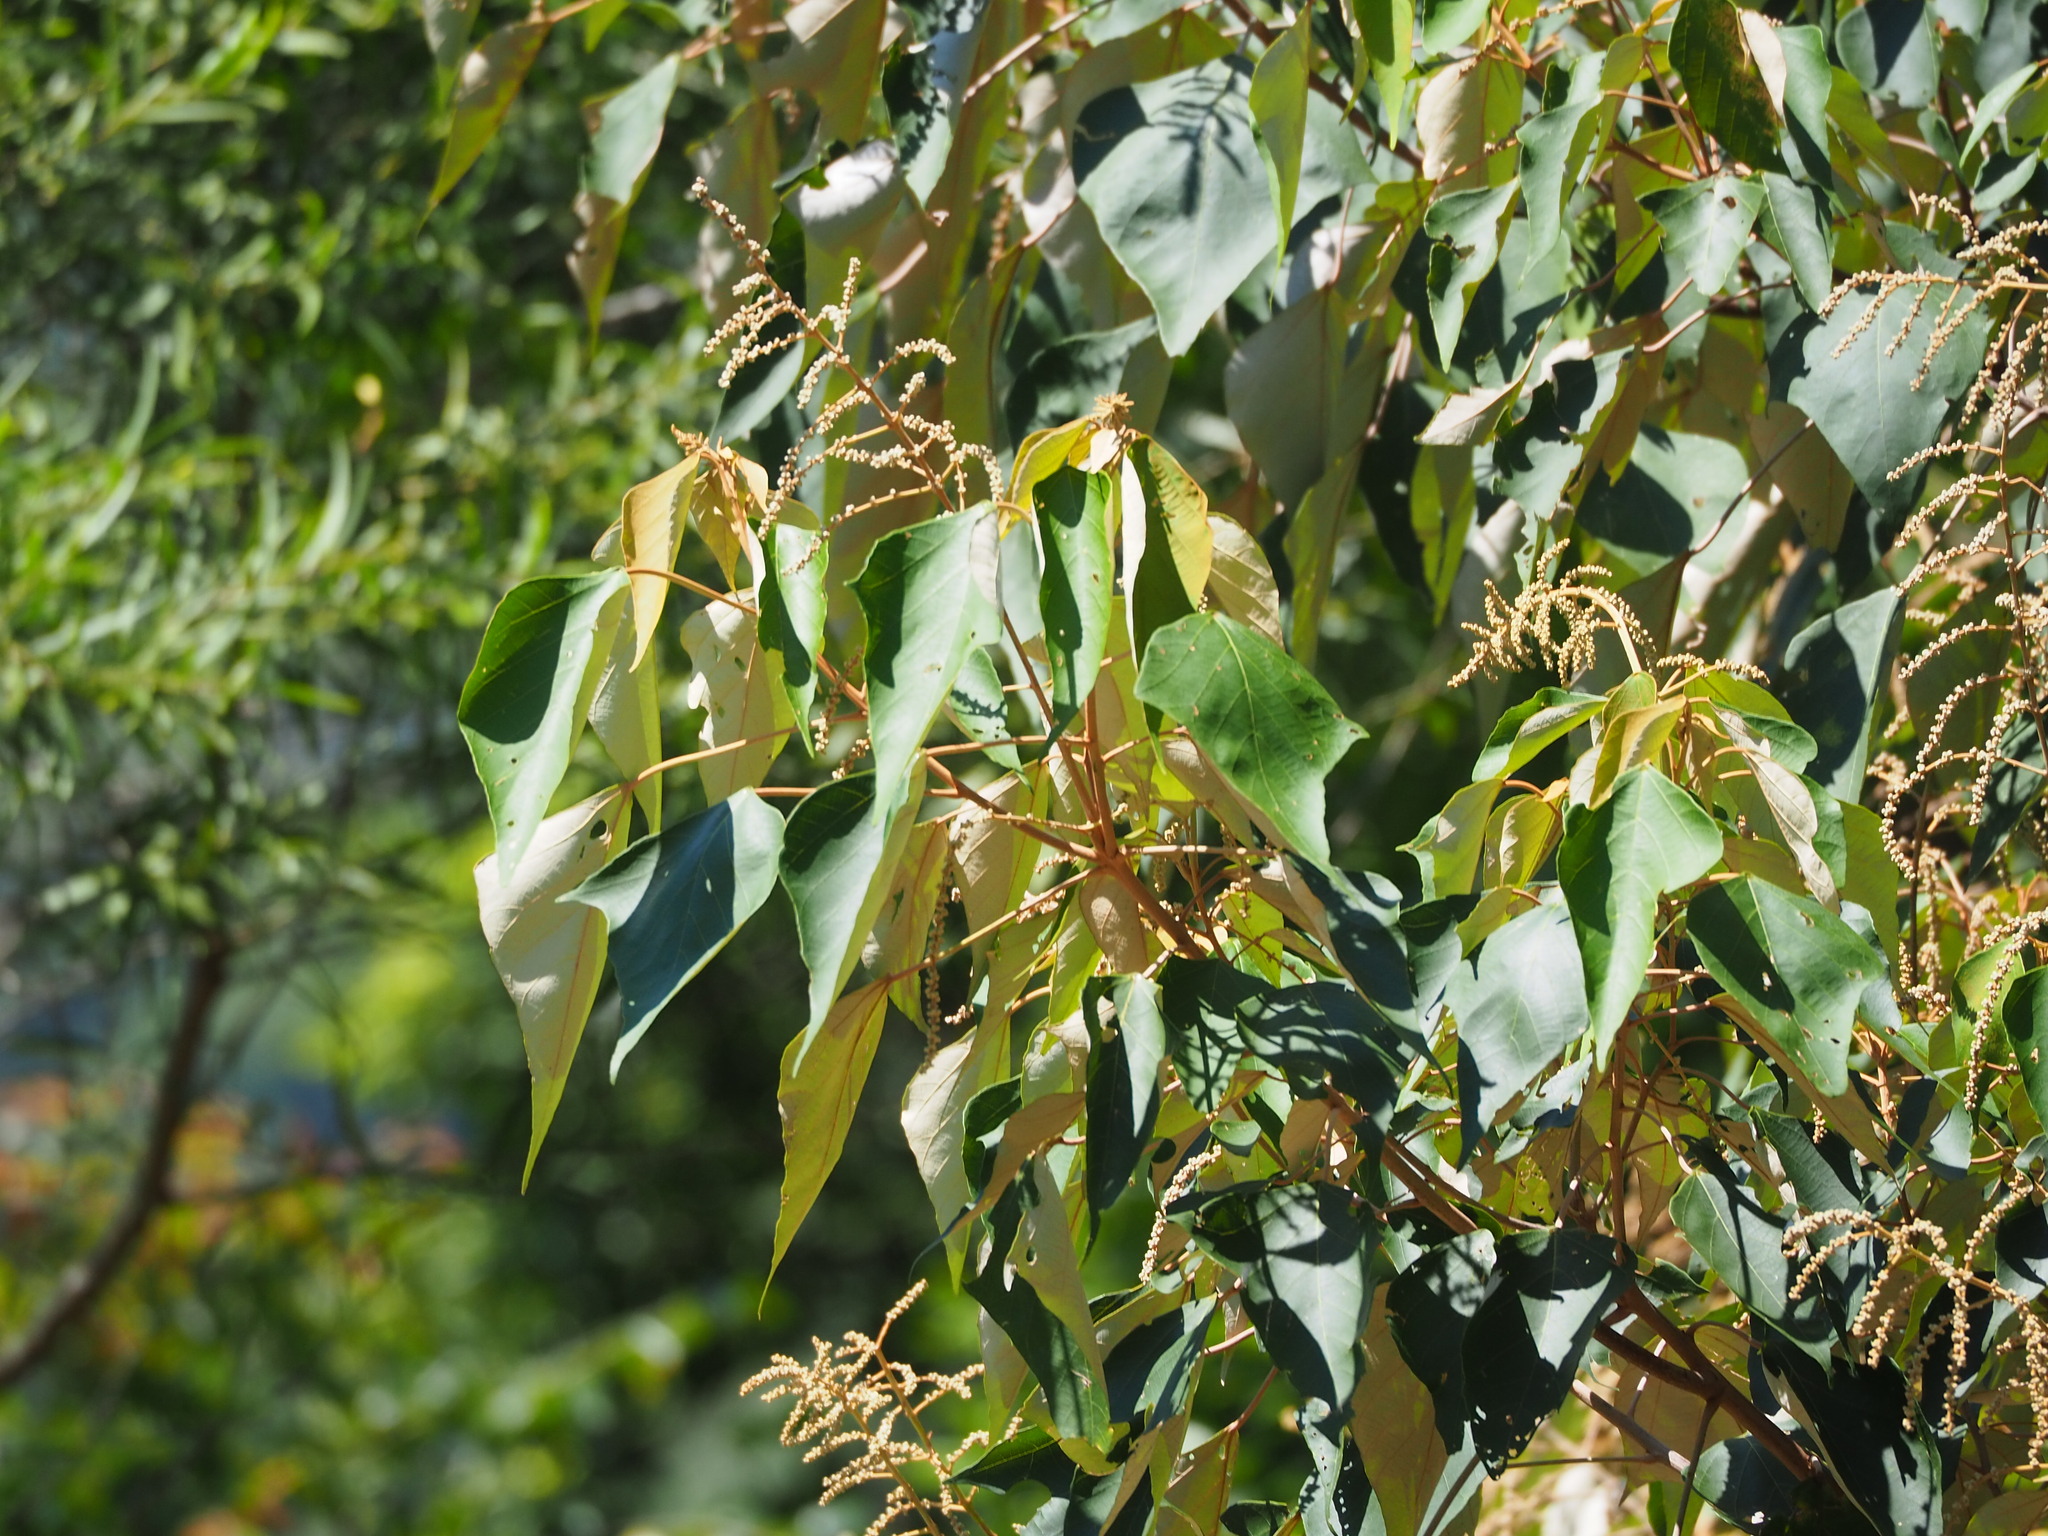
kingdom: Plantae
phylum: Tracheophyta
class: Magnoliopsida
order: Malpighiales
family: Euphorbiaceae
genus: Mallotus
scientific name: Mallotus paniculatus
